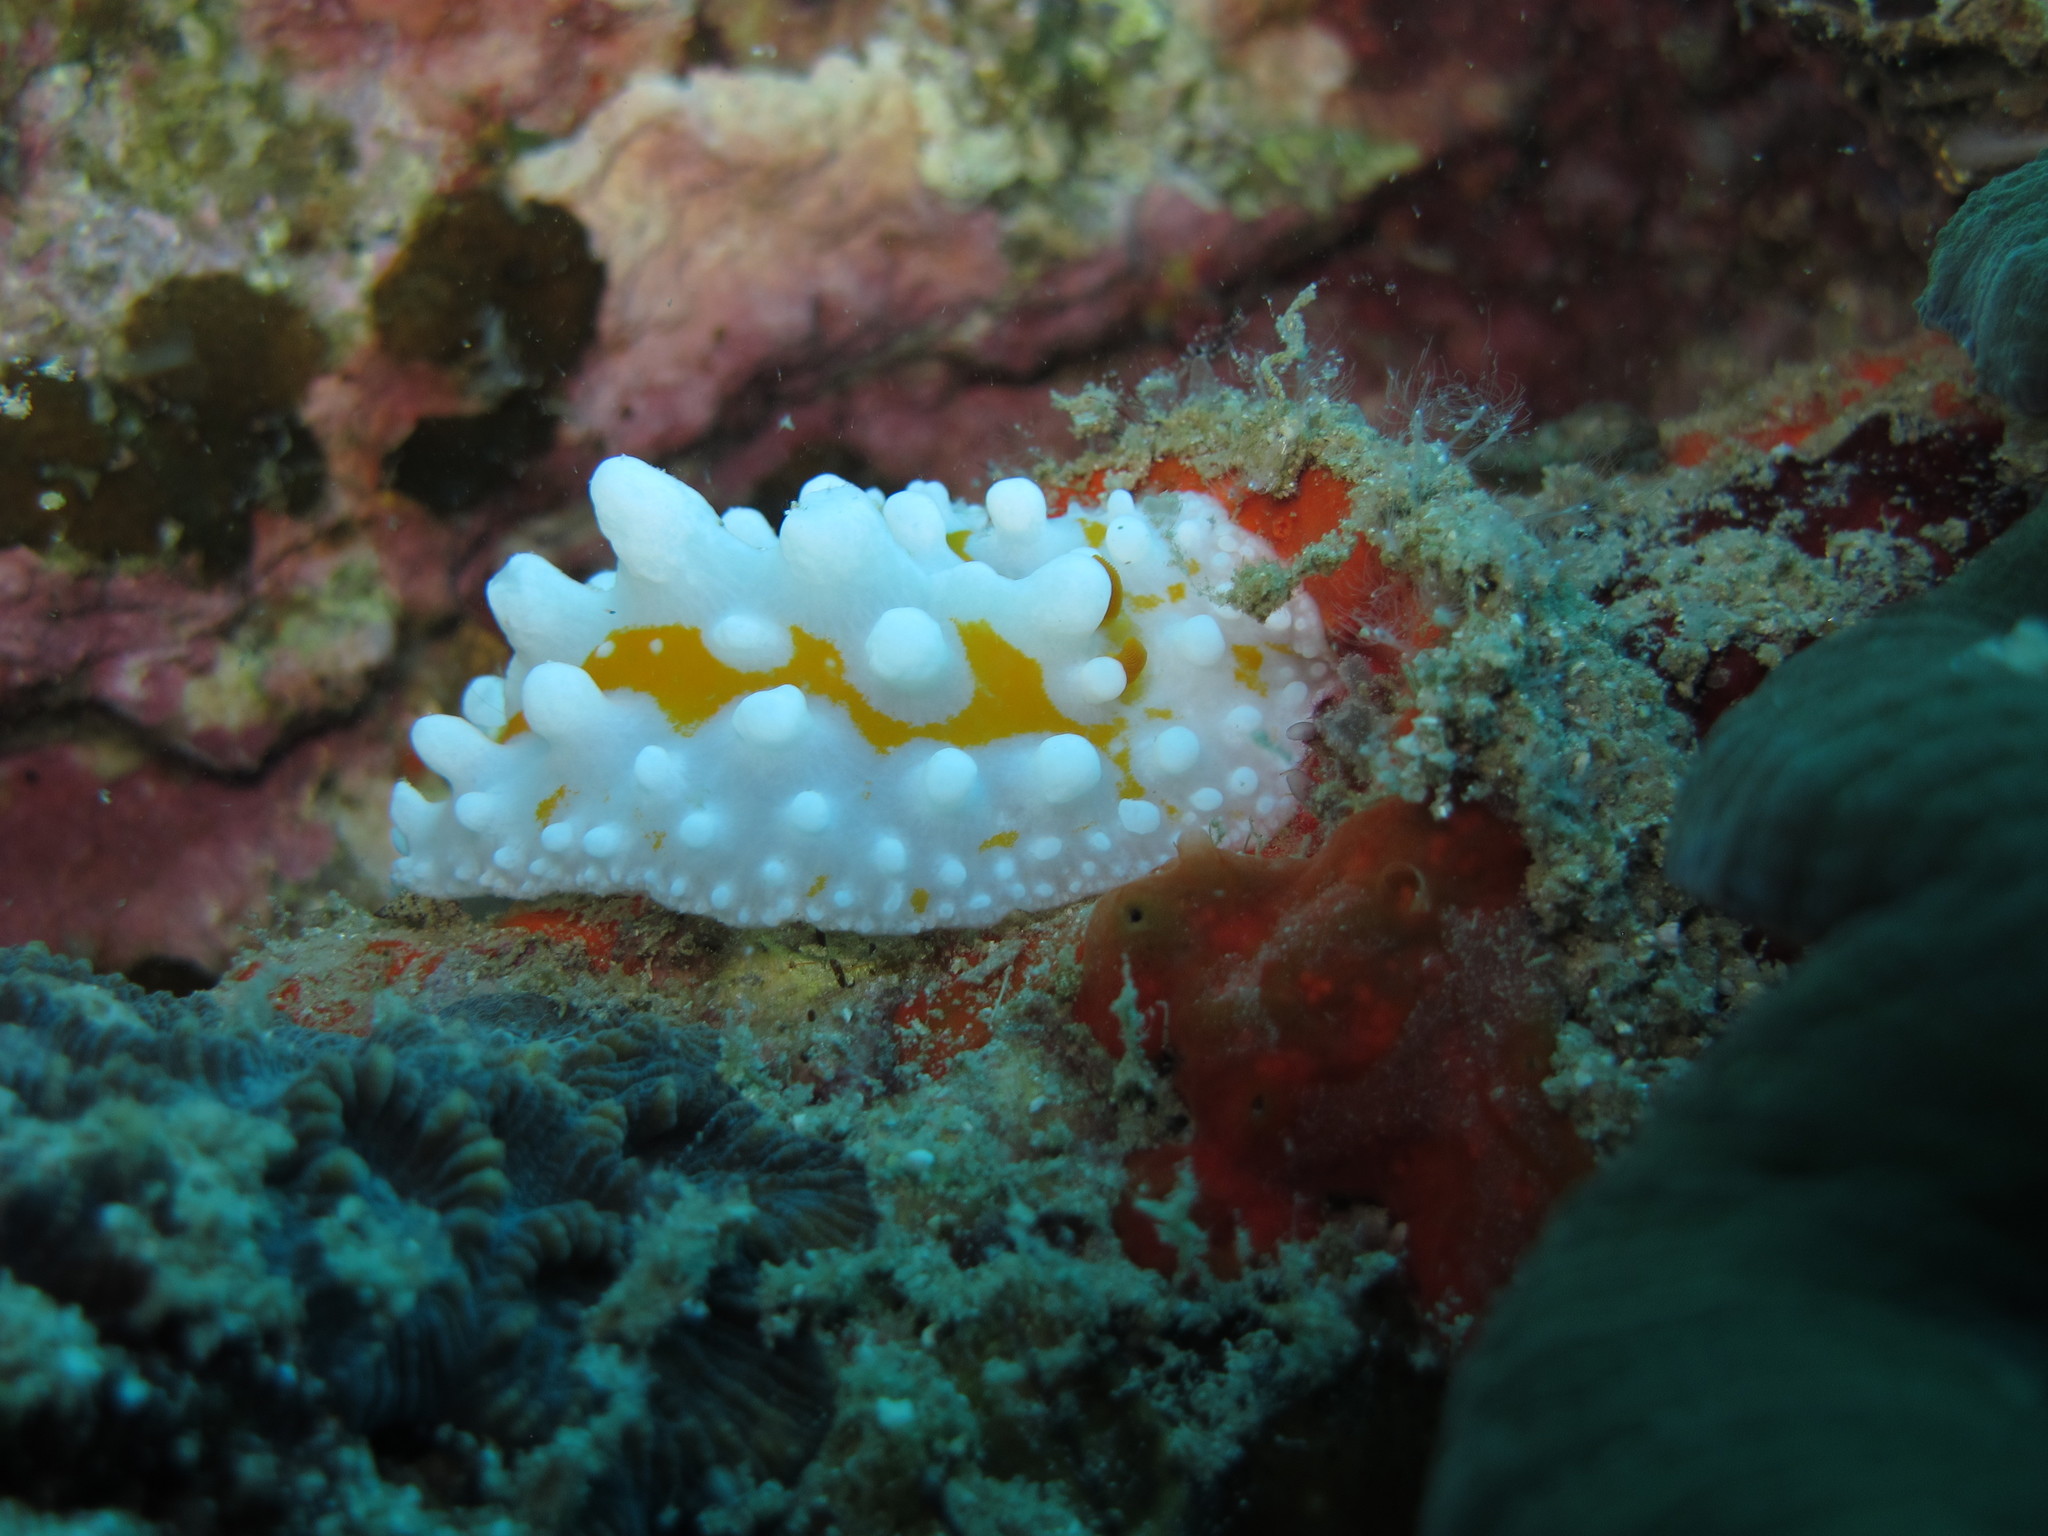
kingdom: Animalia
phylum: Mollusca
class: Gastropoda
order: Nudibranchia
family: Phyllidiidae
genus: Phyllidia
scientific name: Phyllidia ocellata
